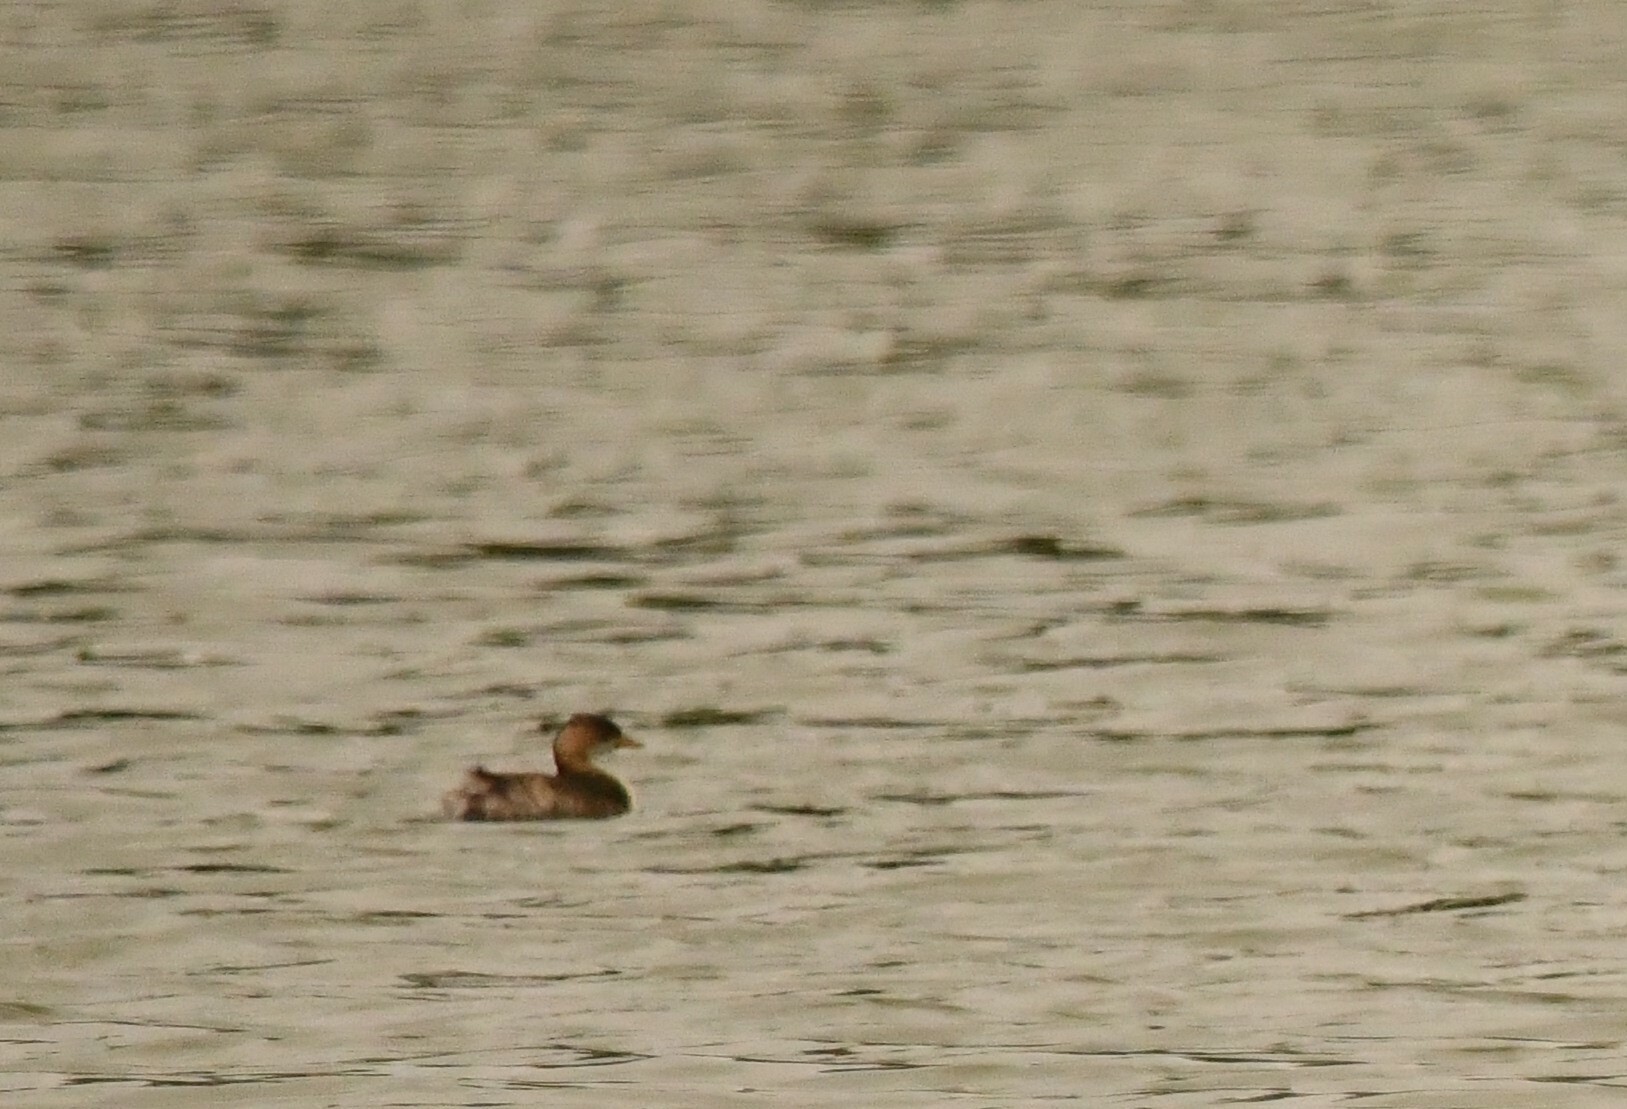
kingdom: Animalia
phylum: Chordata
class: Aves
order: Podicipediformes
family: Podicipedidae
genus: Tachybaptus
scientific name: Tachybaptus ruficollis
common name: Little grebe
